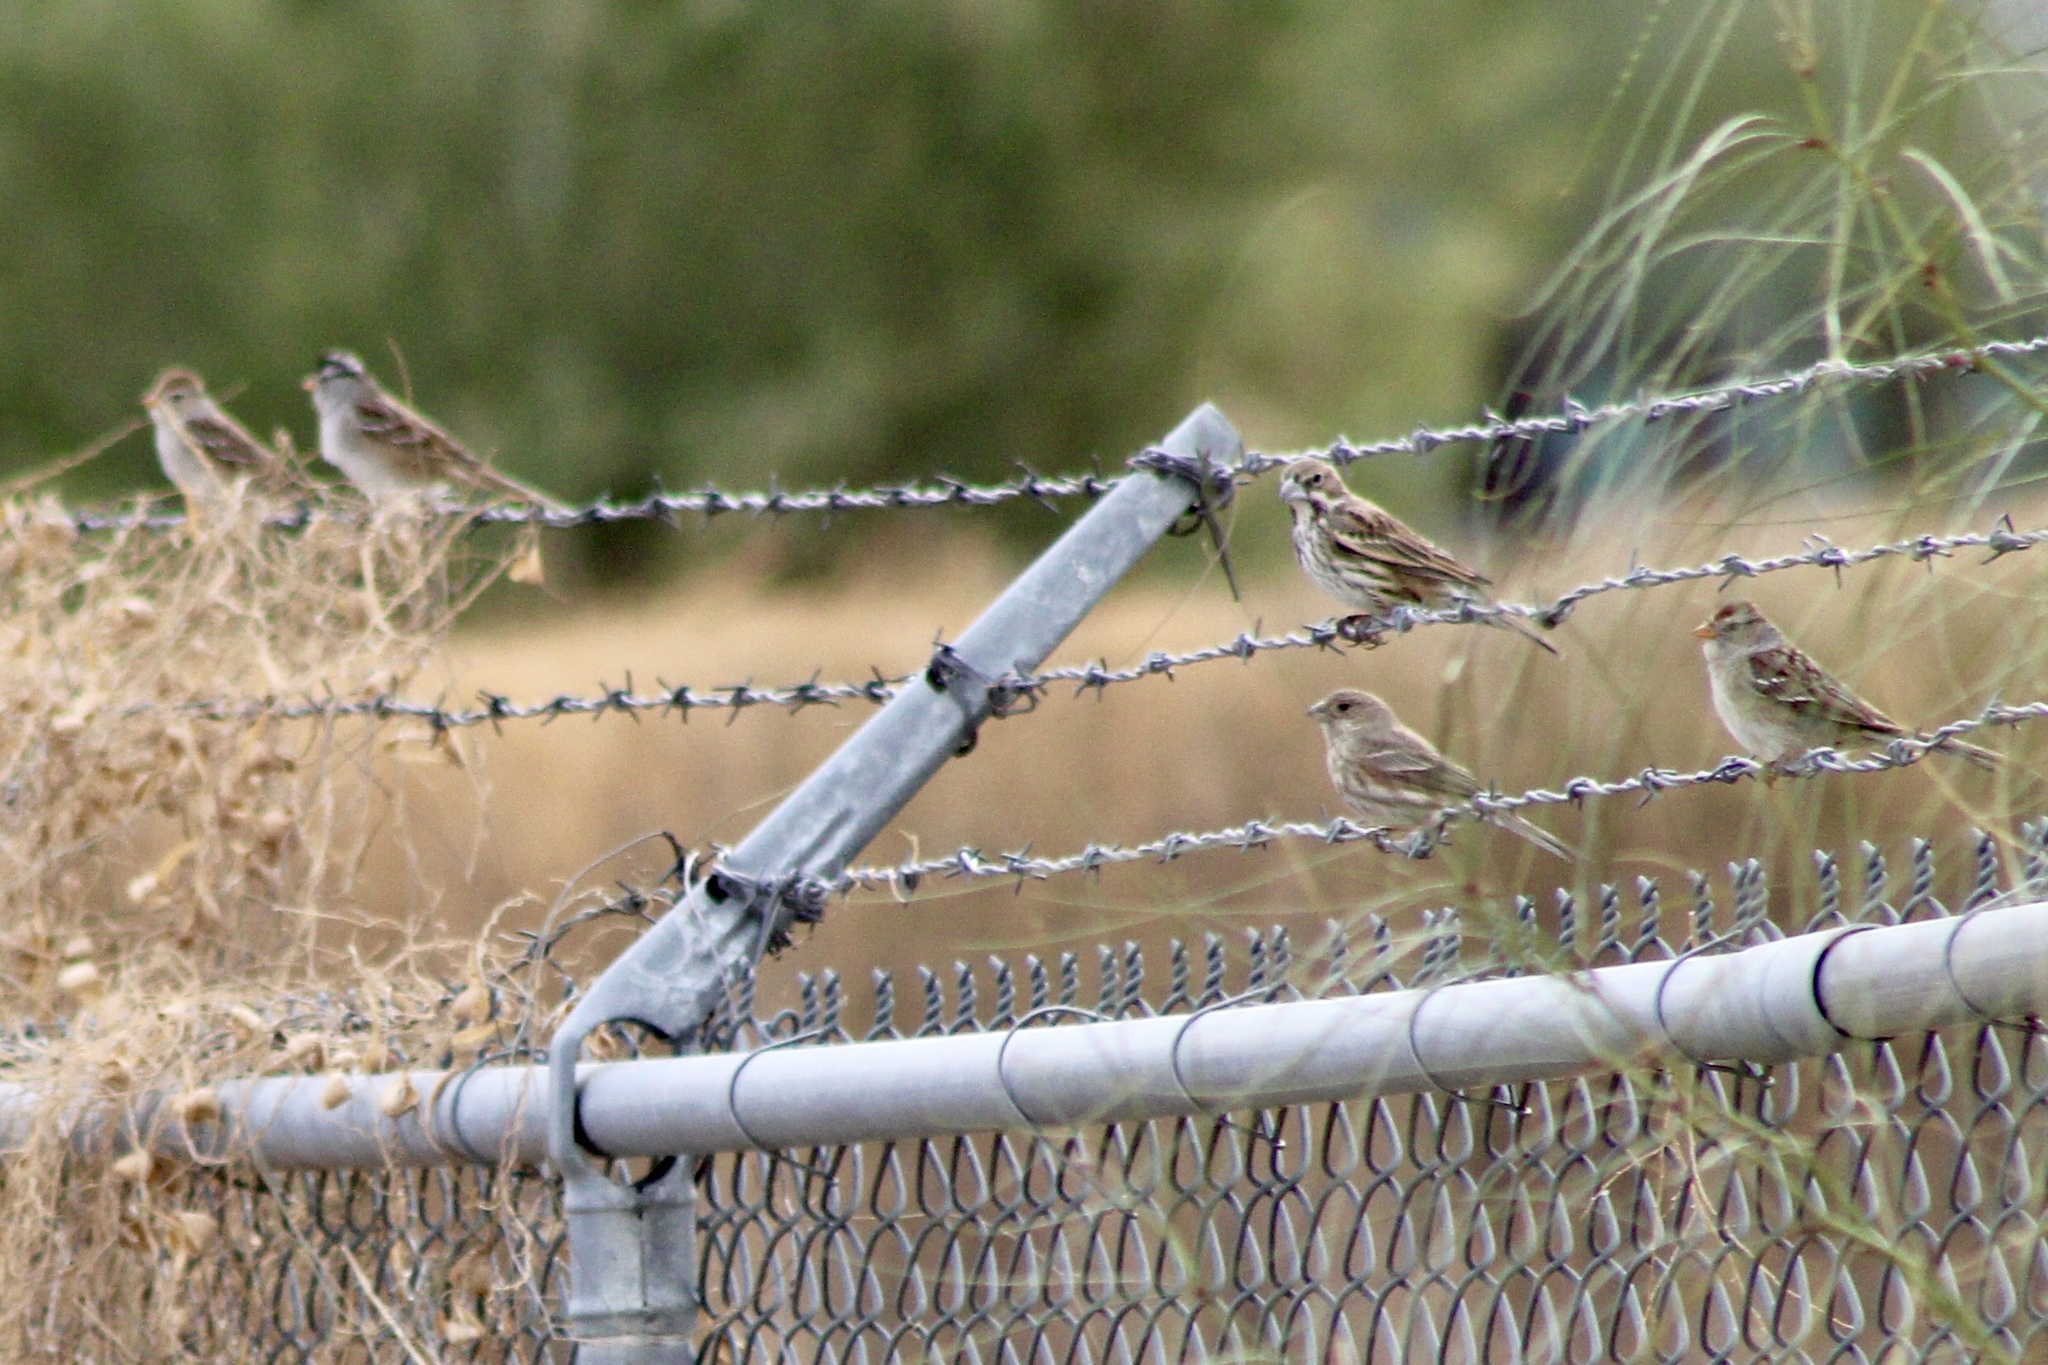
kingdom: Animalia
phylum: Chordata
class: Aves
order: Passeriformes
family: Passerellidae
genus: Zonotrichia
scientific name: Zonotrichia leucophrys
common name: White-crowned sparrow
